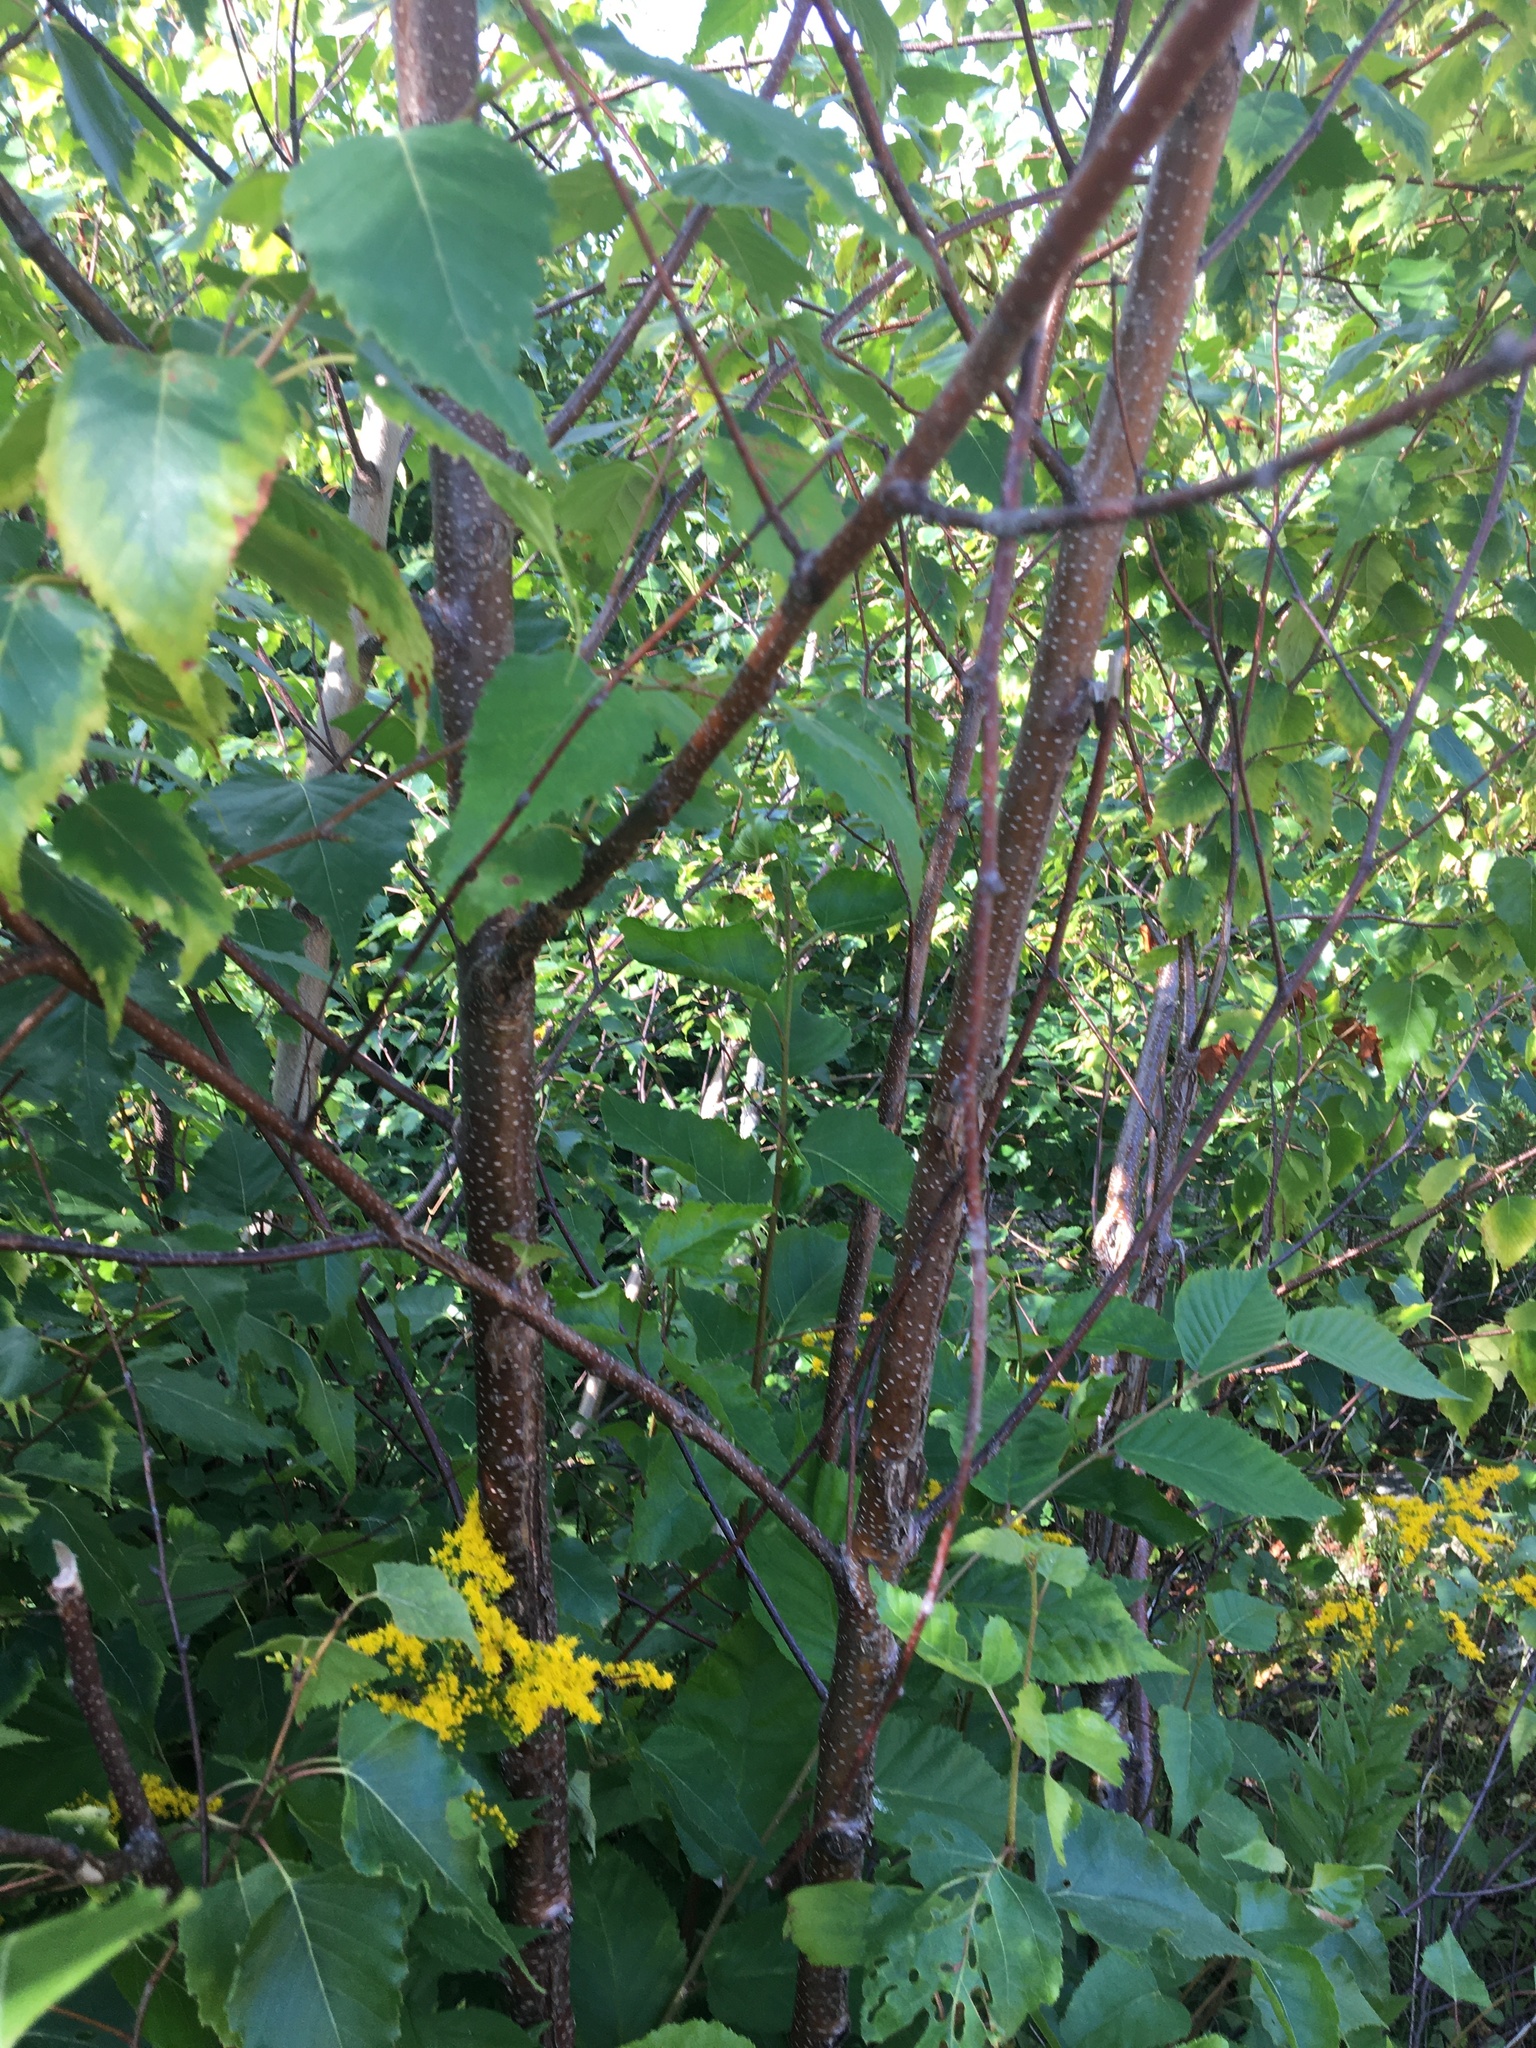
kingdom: Plantae
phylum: Tracheophyta
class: Magnoliopsida
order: Fagales
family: Betulaceae
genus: Betula
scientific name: Betula populifolia
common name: Fire birch
